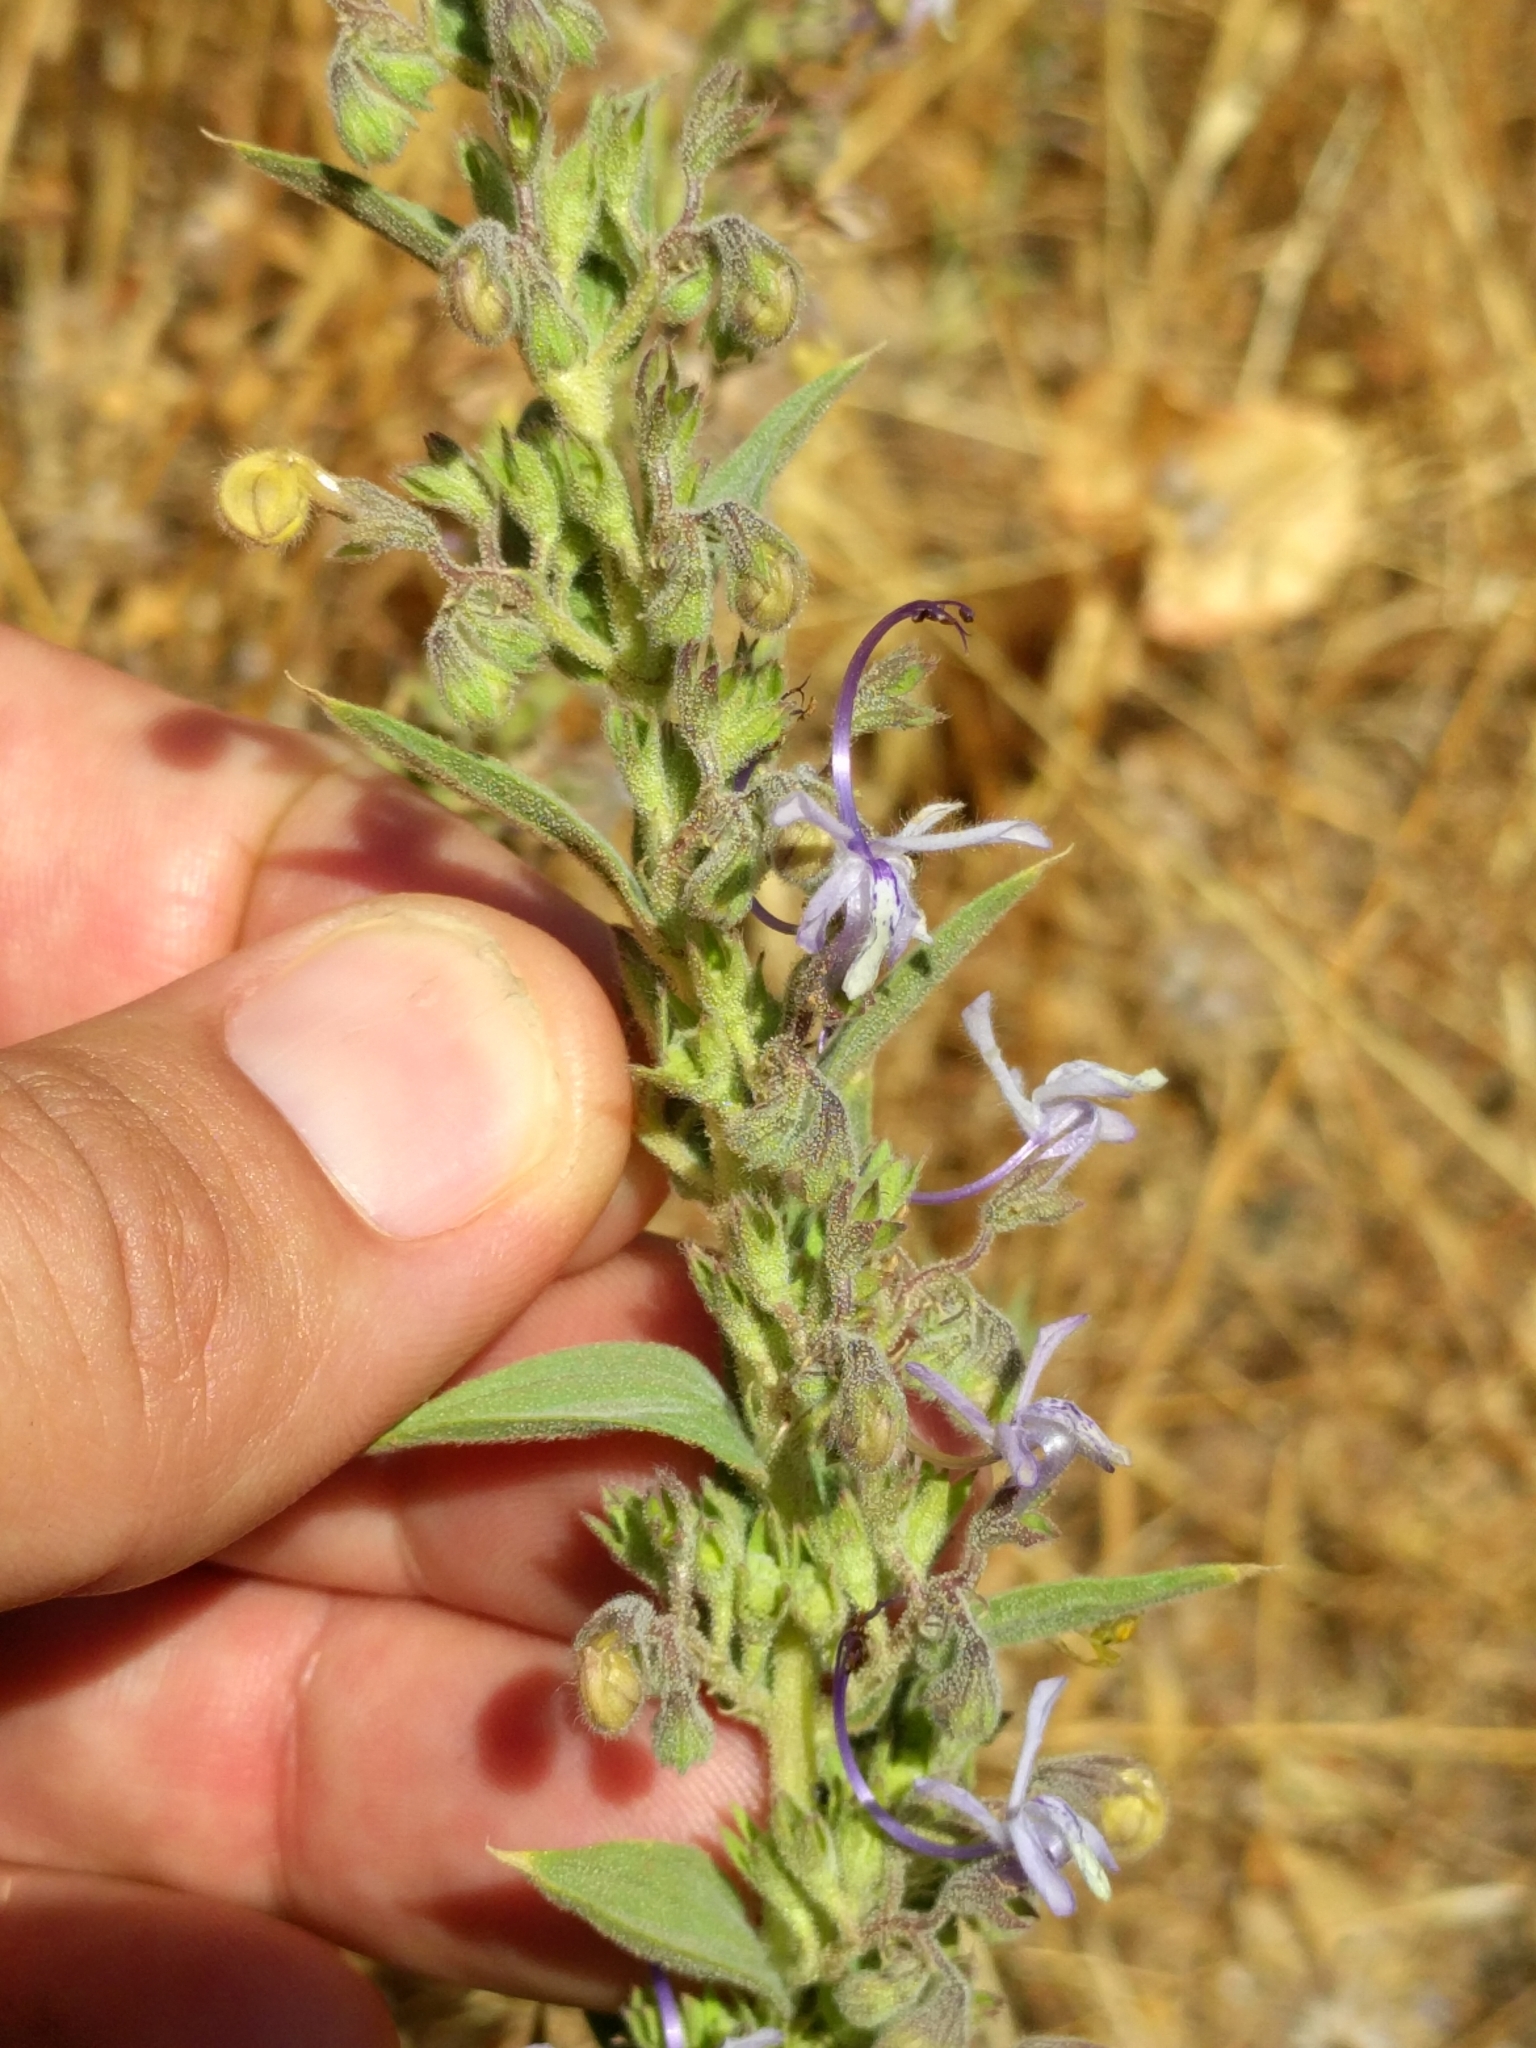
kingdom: Plantae
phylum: Tracheophyta
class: Magnoliopsida
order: Lamiales
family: Lamiaceae
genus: Trichostema
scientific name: Trichostema lanceolatum
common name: Vinegar-weed
